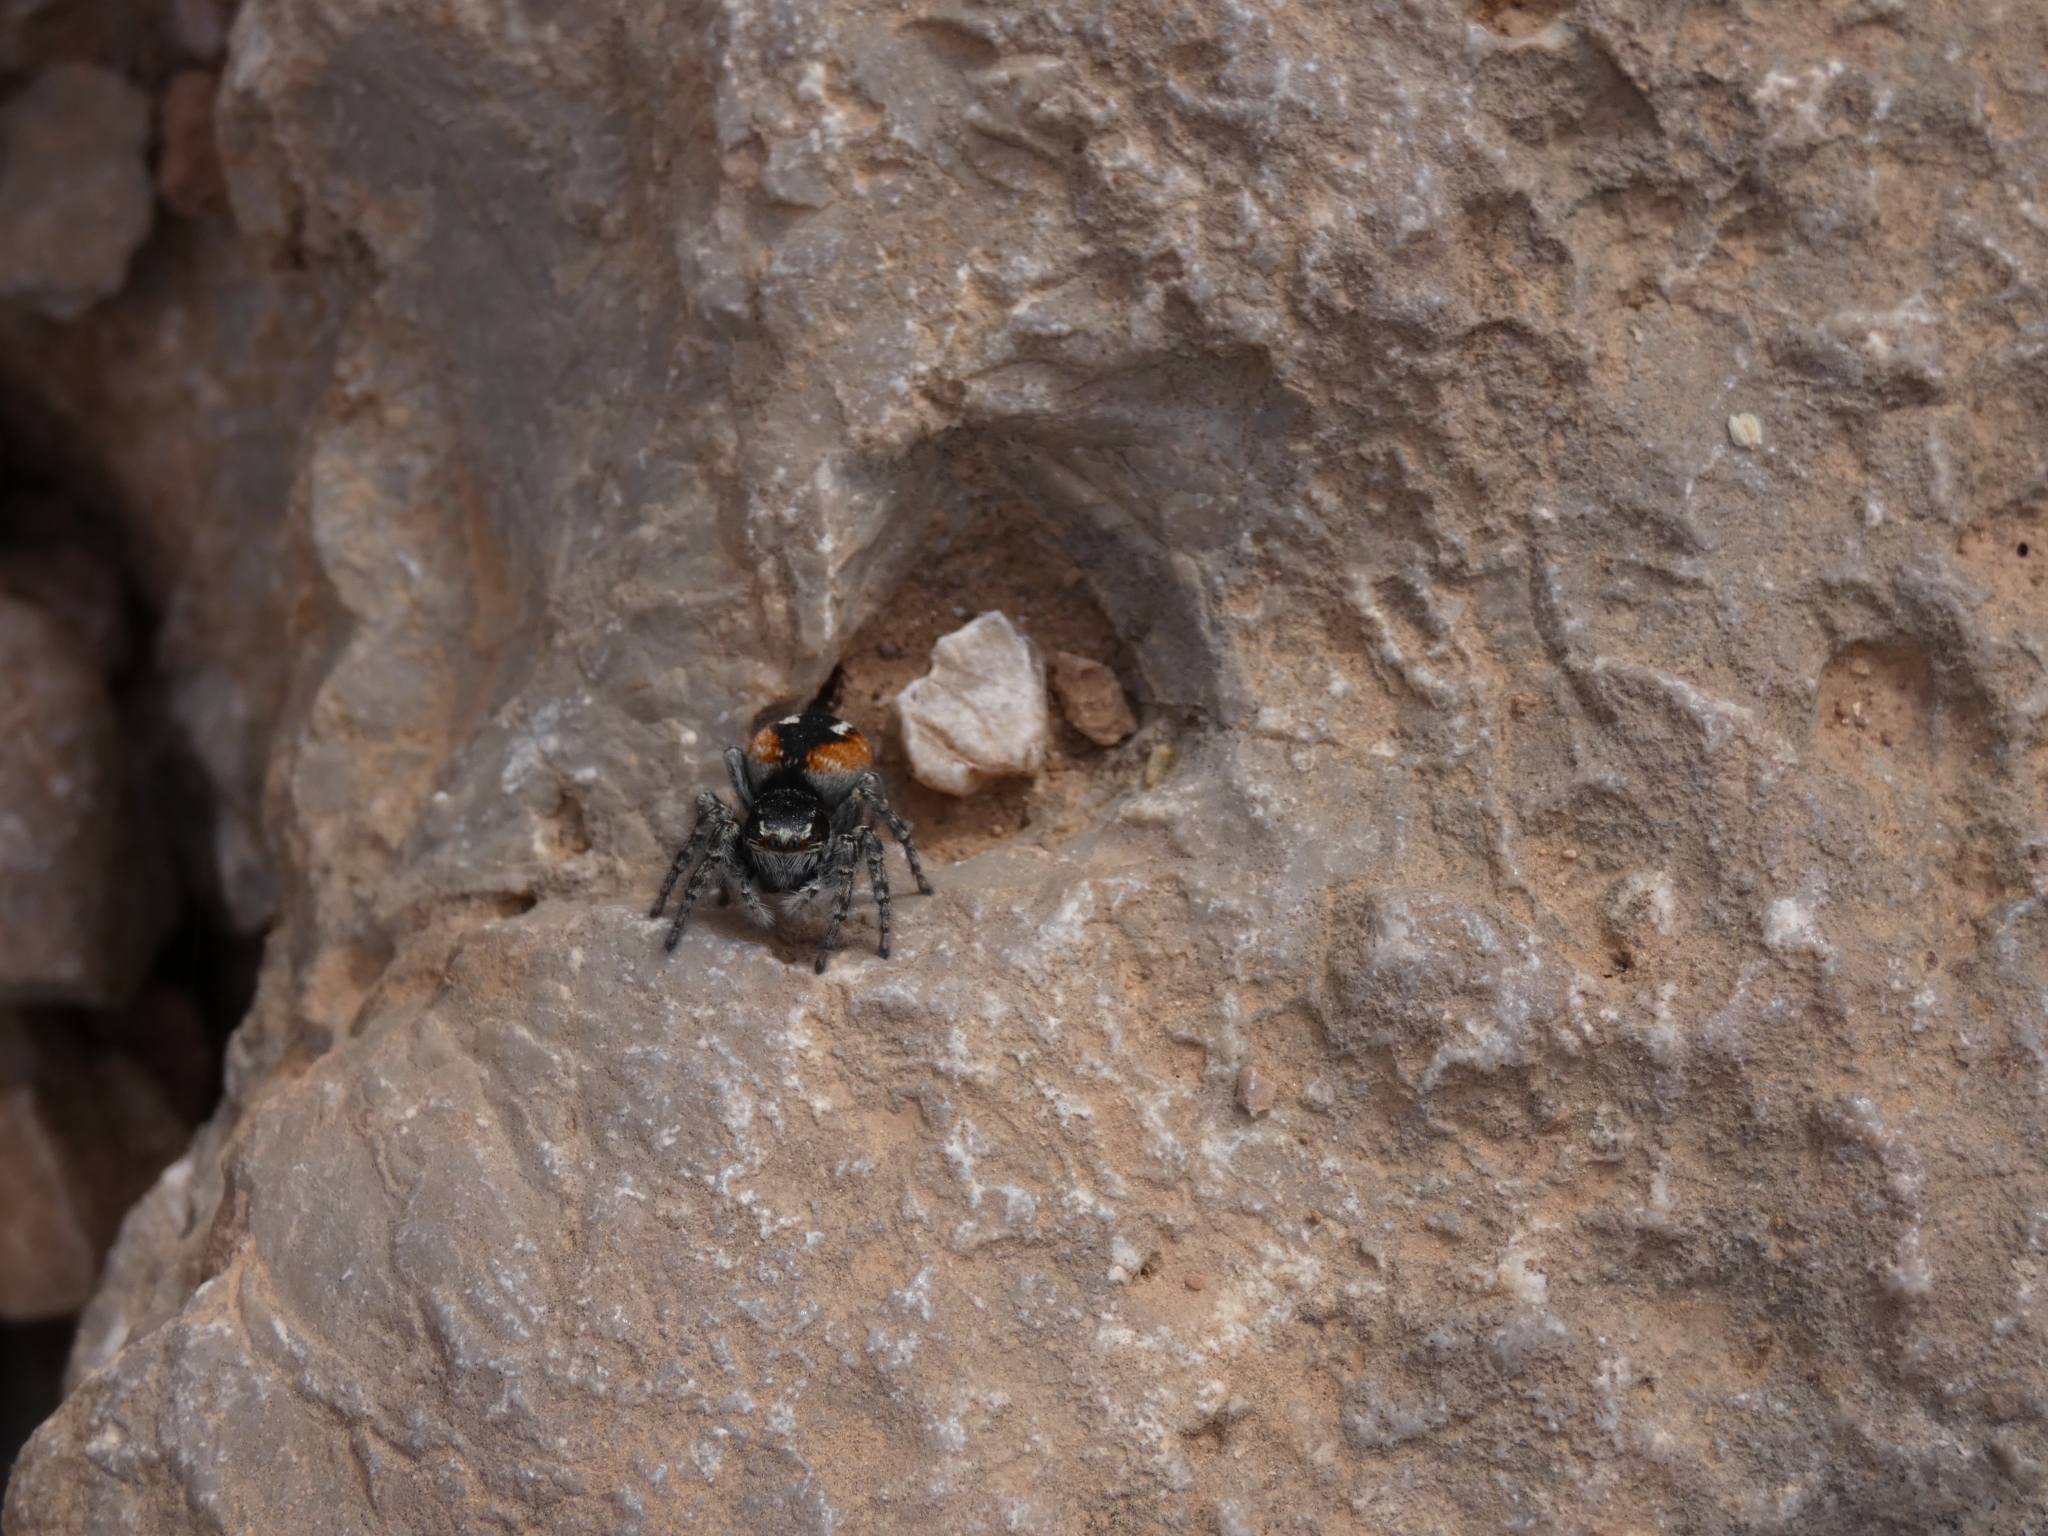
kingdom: Animalia
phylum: Arthropoda
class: Arachnida
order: Araneae
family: Salticidae
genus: Philaeus
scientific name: Philaeus chrysops
